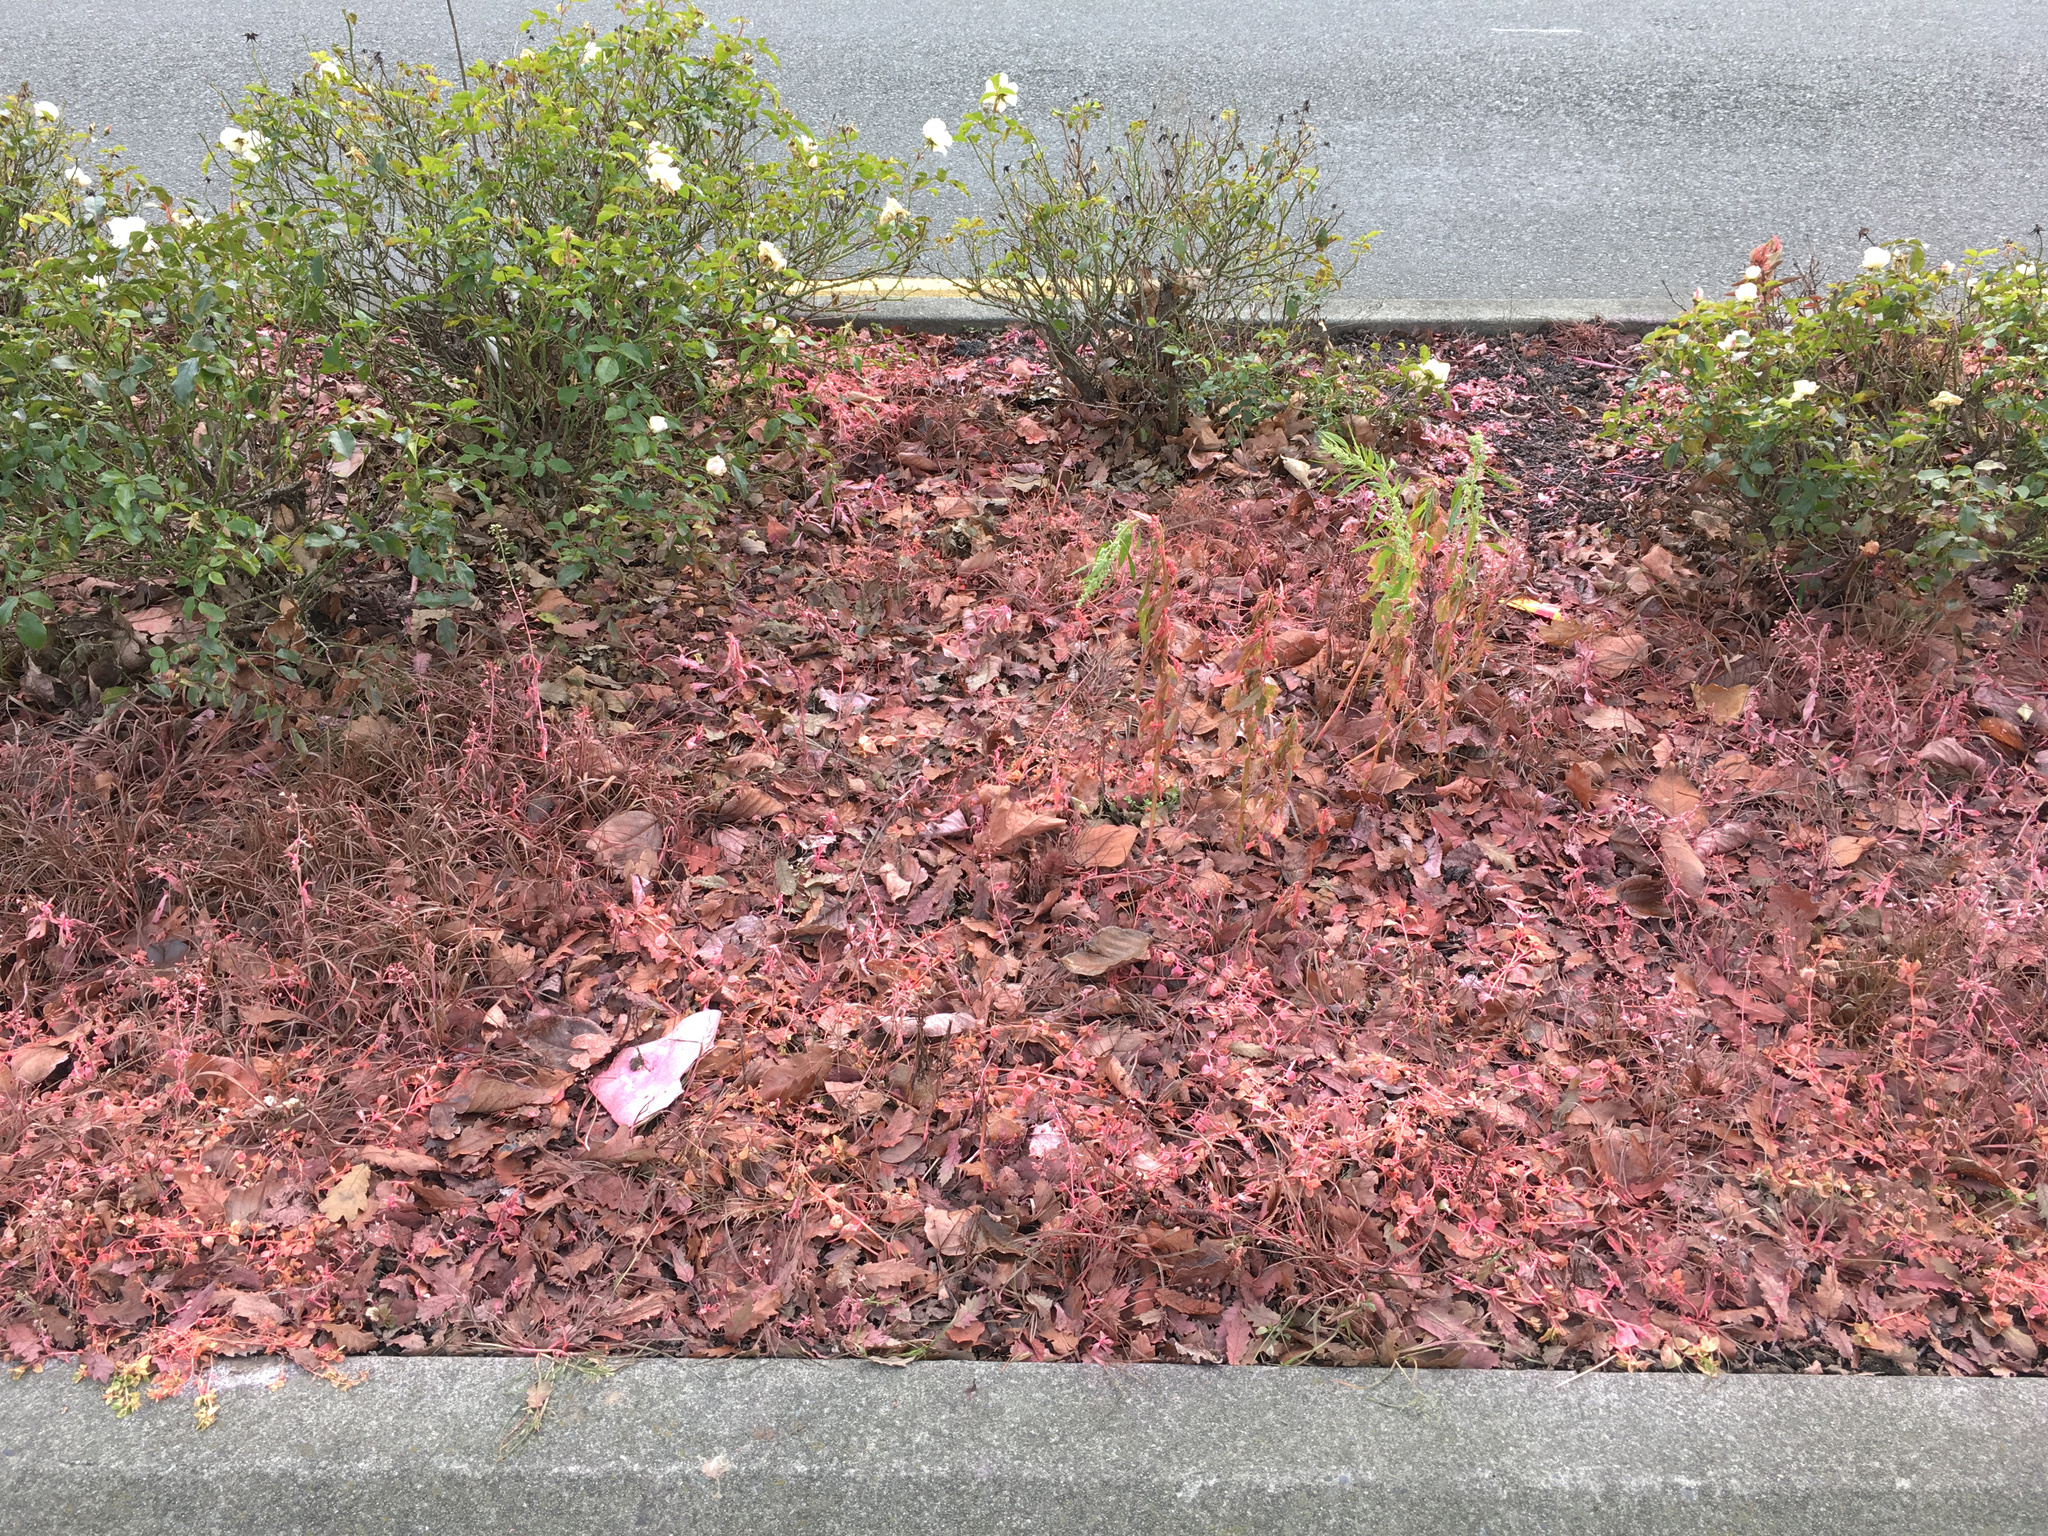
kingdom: Plantae
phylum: Tracheophyta
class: Magnoliopsida
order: Asterales
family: Asteraceae
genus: Senecio
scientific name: Senecio vulgaris
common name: Old-man-in-the-spring
